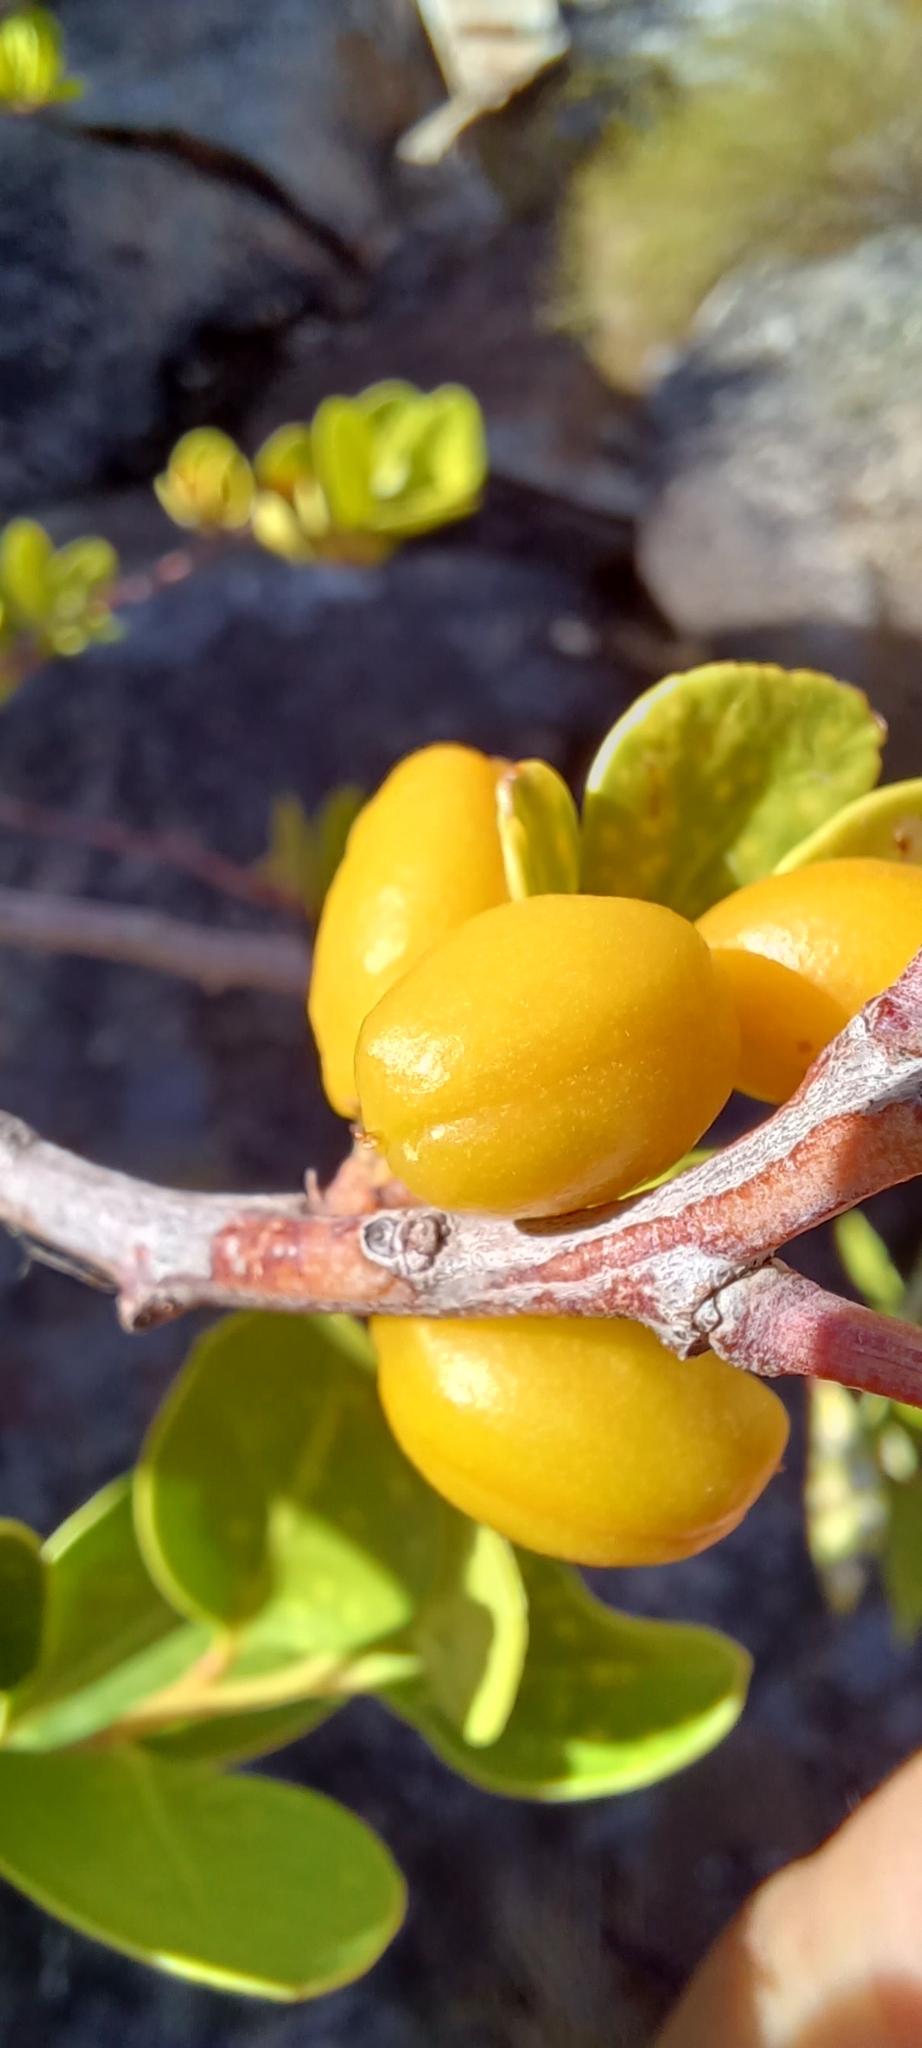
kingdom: Plantae
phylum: Tracheophyta
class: Magnoliopsida
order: Celastrales
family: Celastraceae
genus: Gymnosporia
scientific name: Gymnosporia laurina
